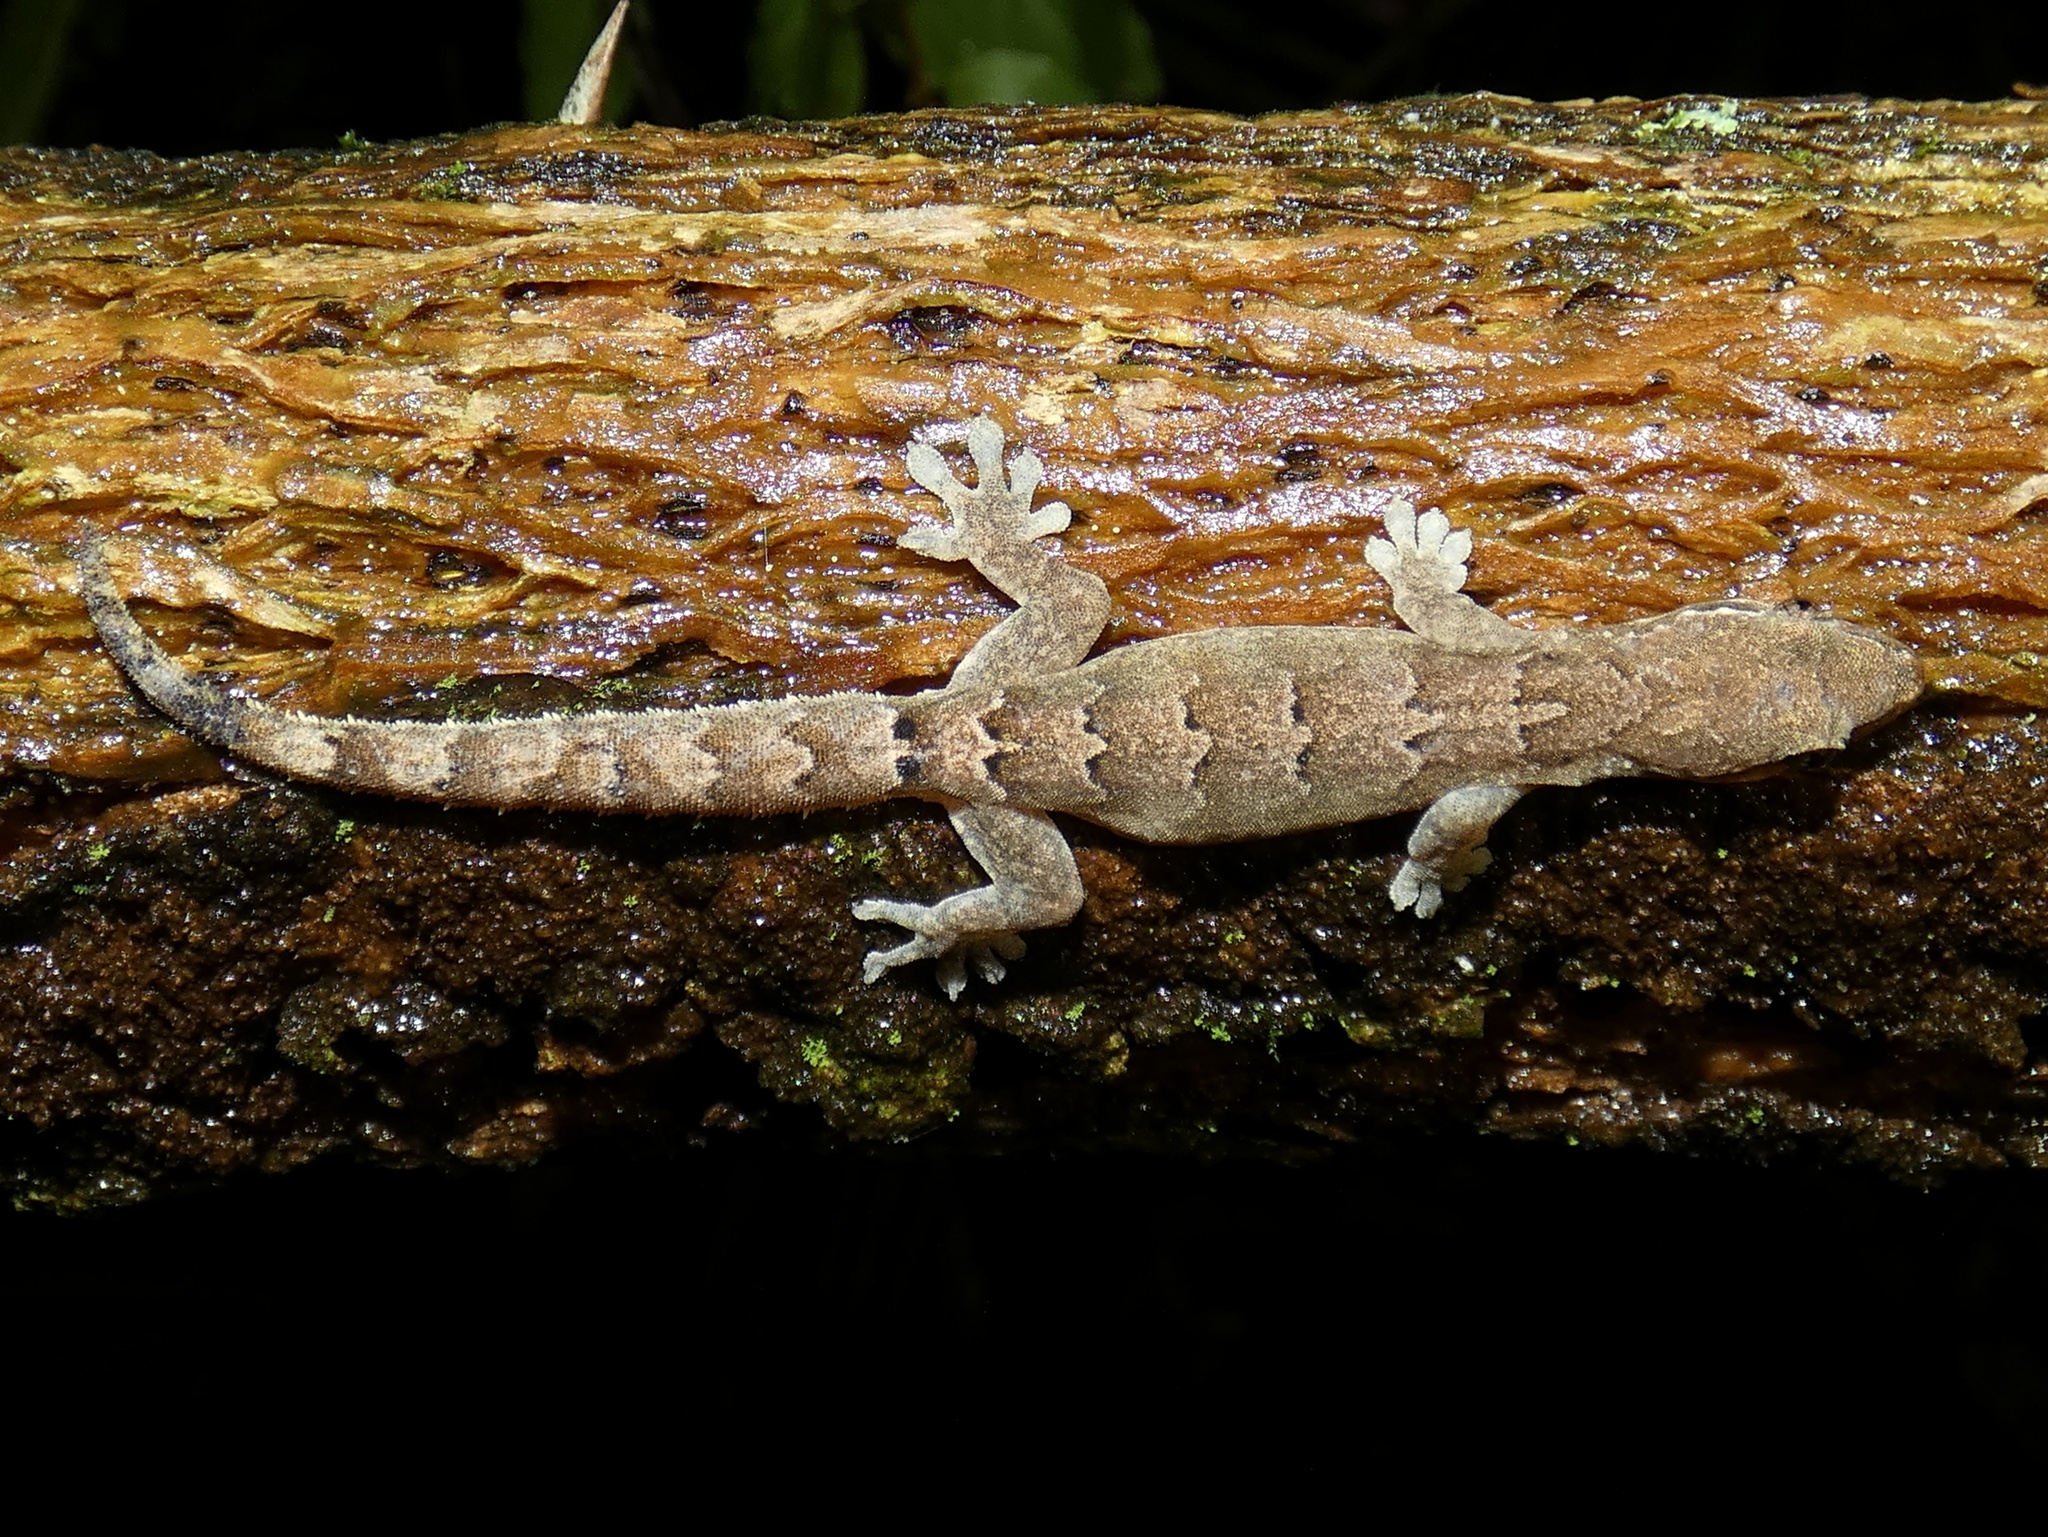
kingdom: Animalia
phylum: Chordata
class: Squamata
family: Gekkonidae
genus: Lepidodactylus
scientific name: Lepidodactylus lugubris
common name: Mourning gecko
